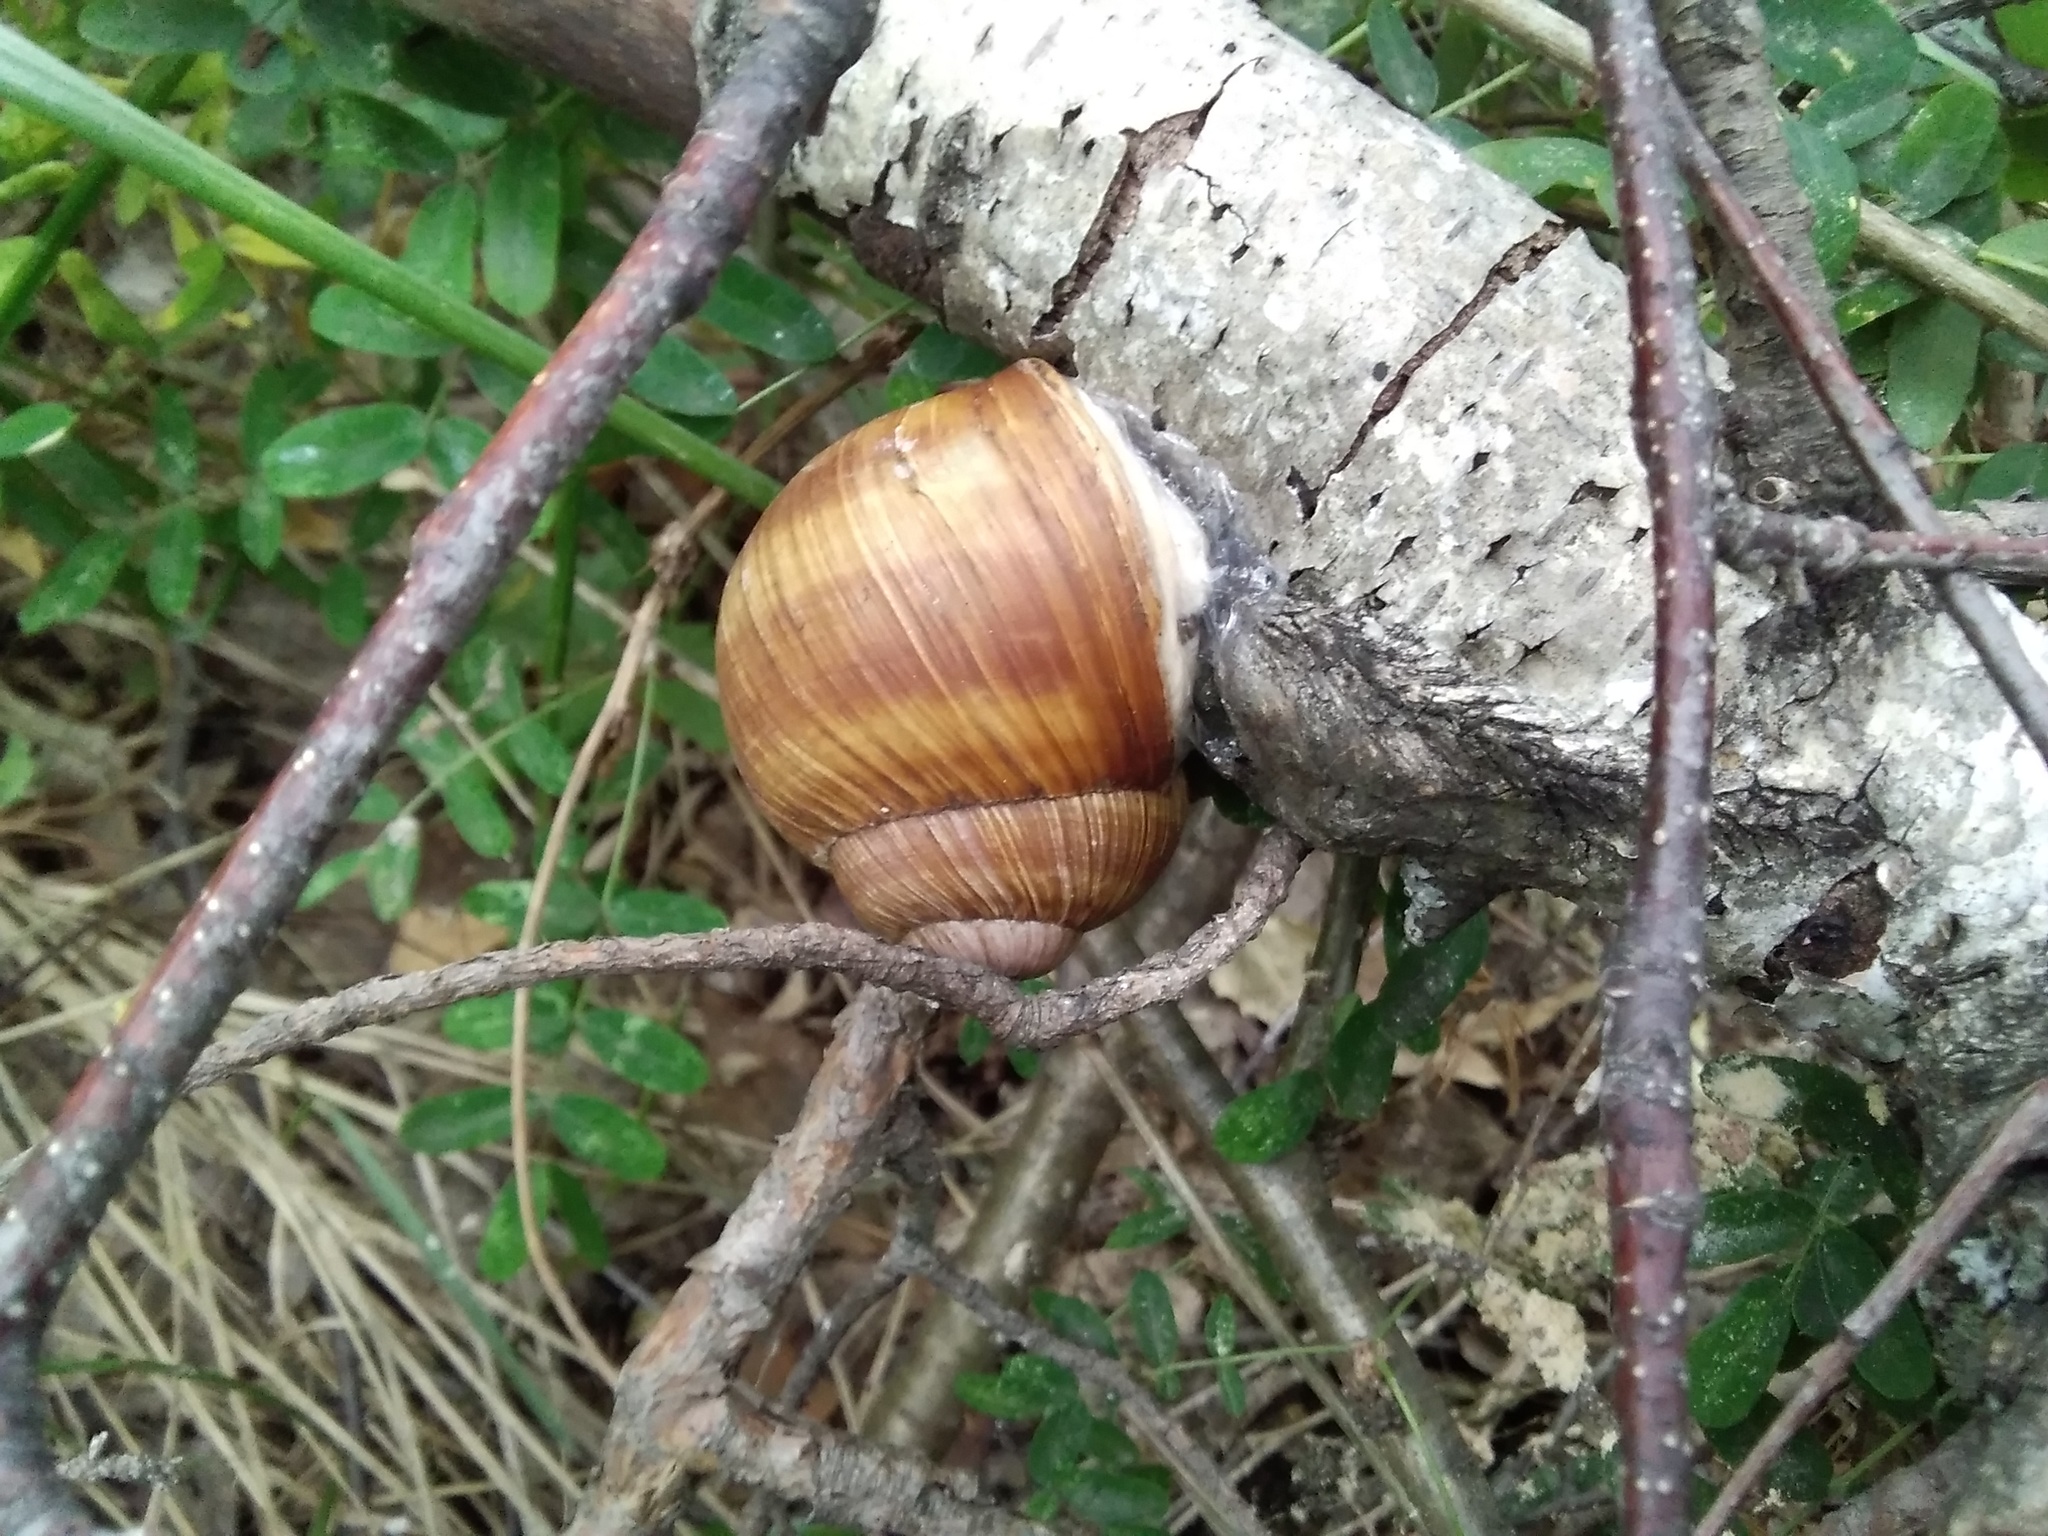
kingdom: Animalia
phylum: Mollusca
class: Gastropoda
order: Stylommatophora
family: Helicidae
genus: Helix
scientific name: Helix pomatia
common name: Roman snail
